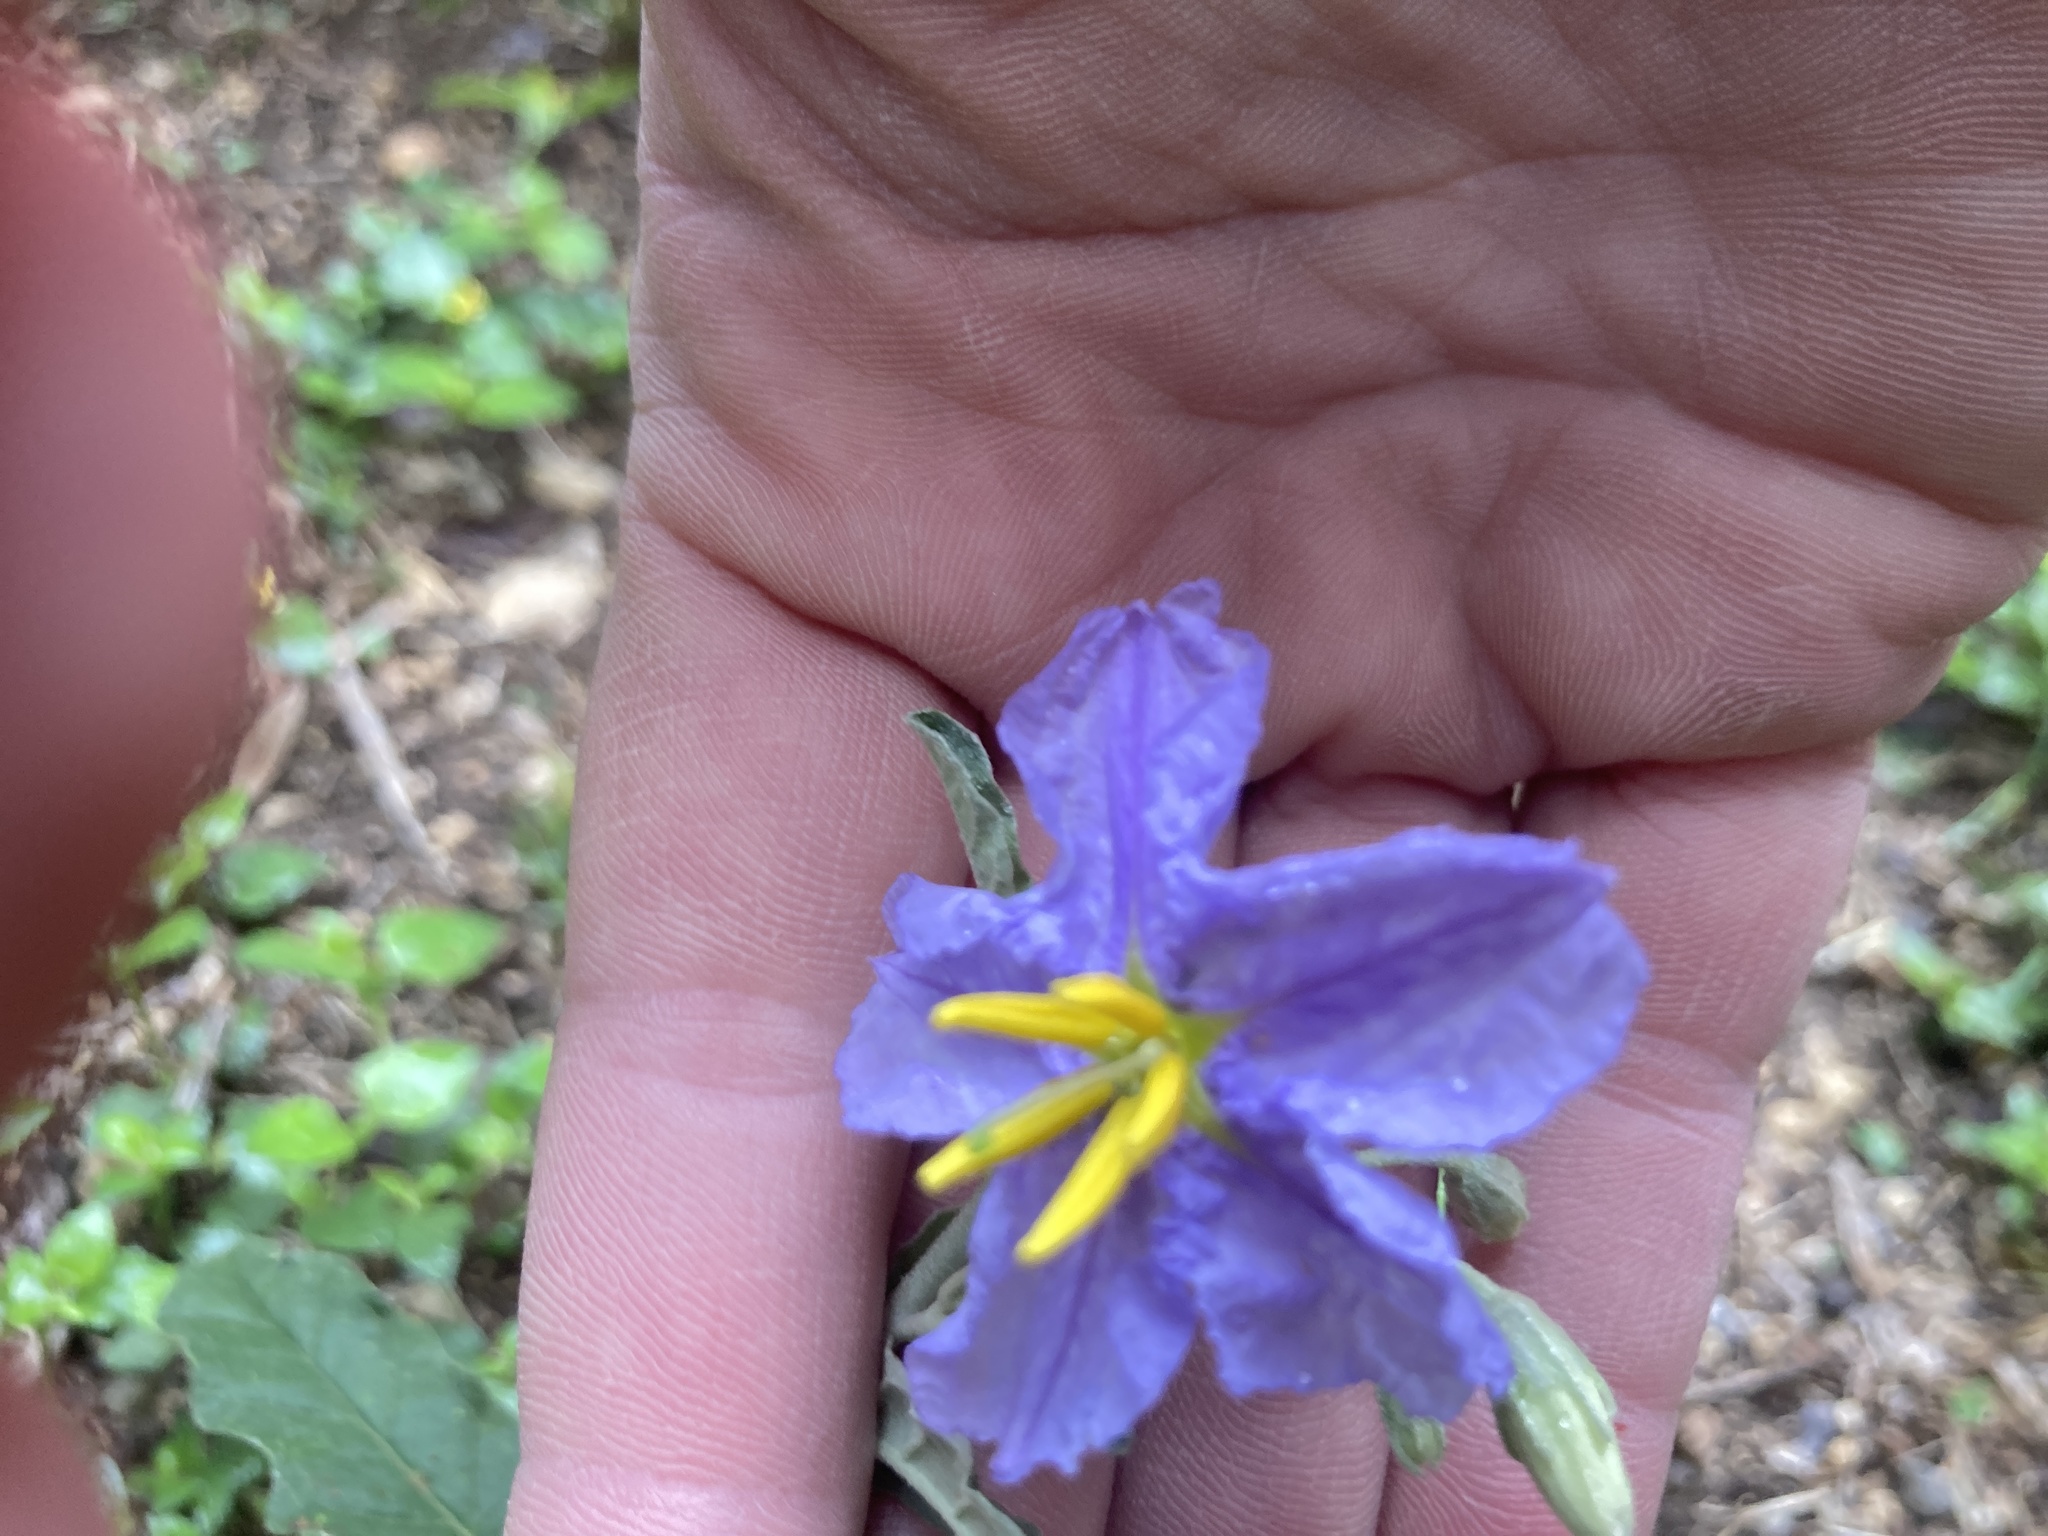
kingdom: Plantae
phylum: Tracheophyta
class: Magnoliopsida
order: Solanales
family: Solanaceae
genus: Solanum
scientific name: Solanum elaeagnifolium
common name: Silverleaf nightshade
